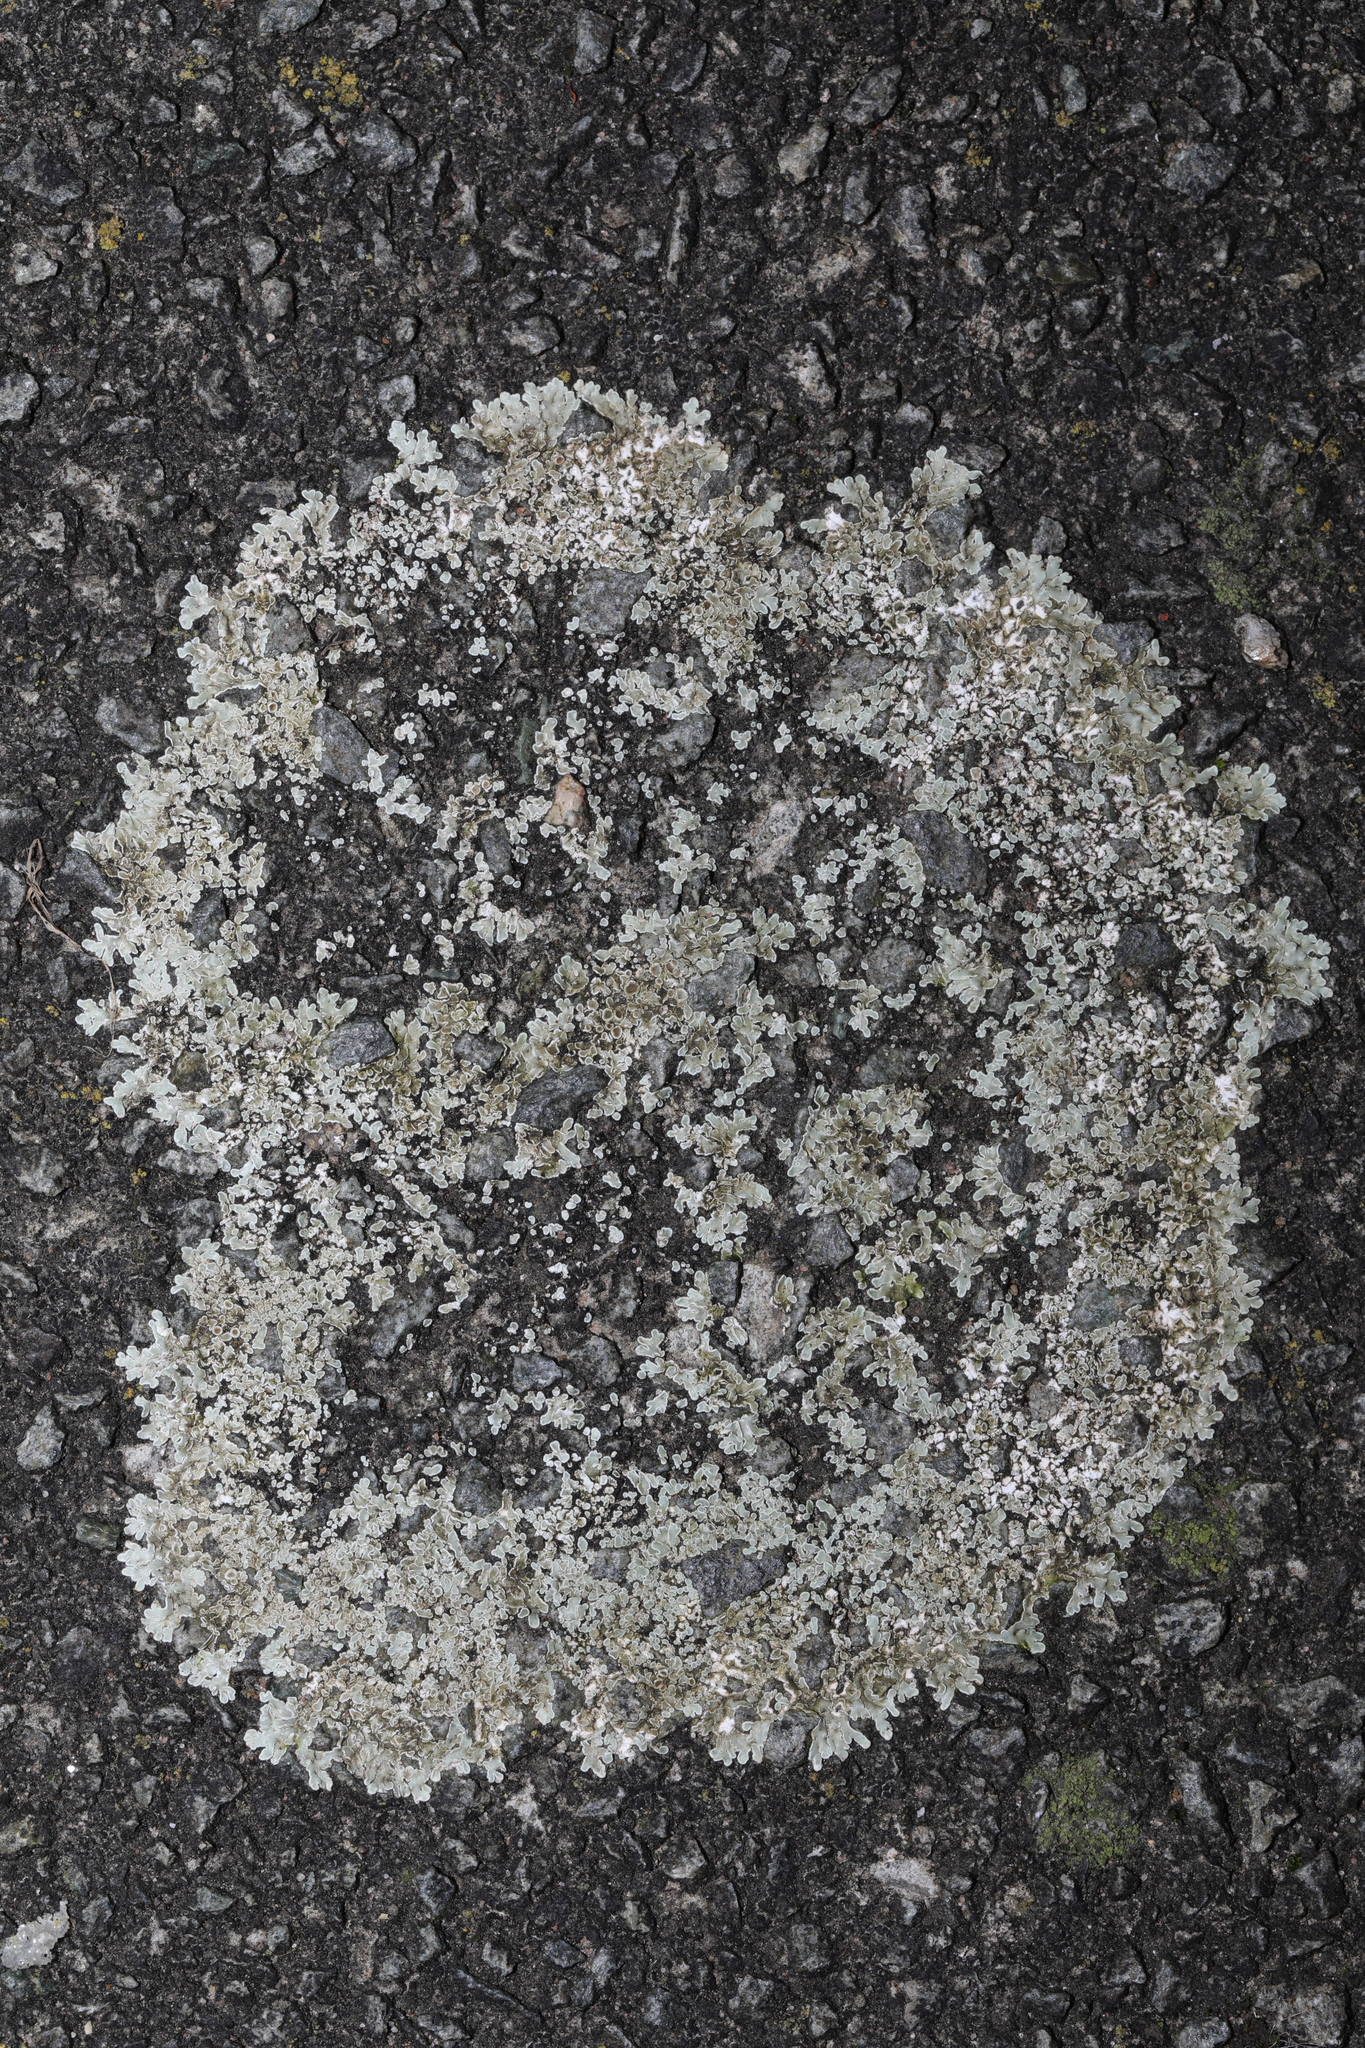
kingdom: Fungi
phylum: Ascomycota
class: Lecanoromycetes
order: Lecanorales
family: Lecanoraceae
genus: Protoparmeliopsis
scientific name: Protoparmeliopsis muralis
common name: Stonewall rim lichen
